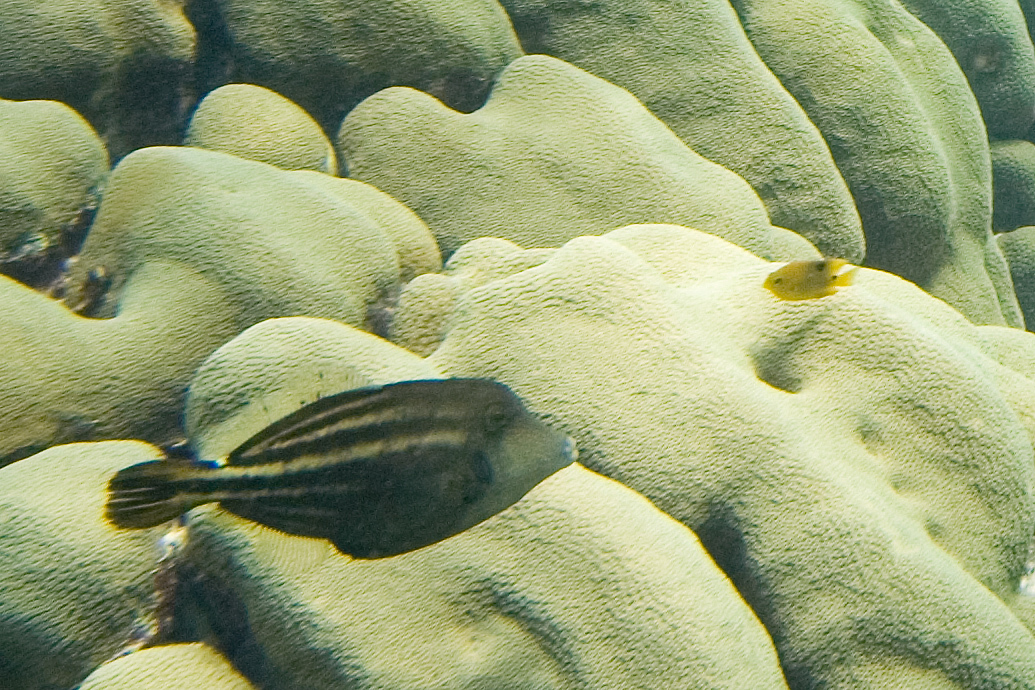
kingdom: Animalia
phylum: Chordata
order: Tetraodontiformes
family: Monacanthidae
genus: Cantherhines
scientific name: Cantherhines pullus
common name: Orangespotted filefish
